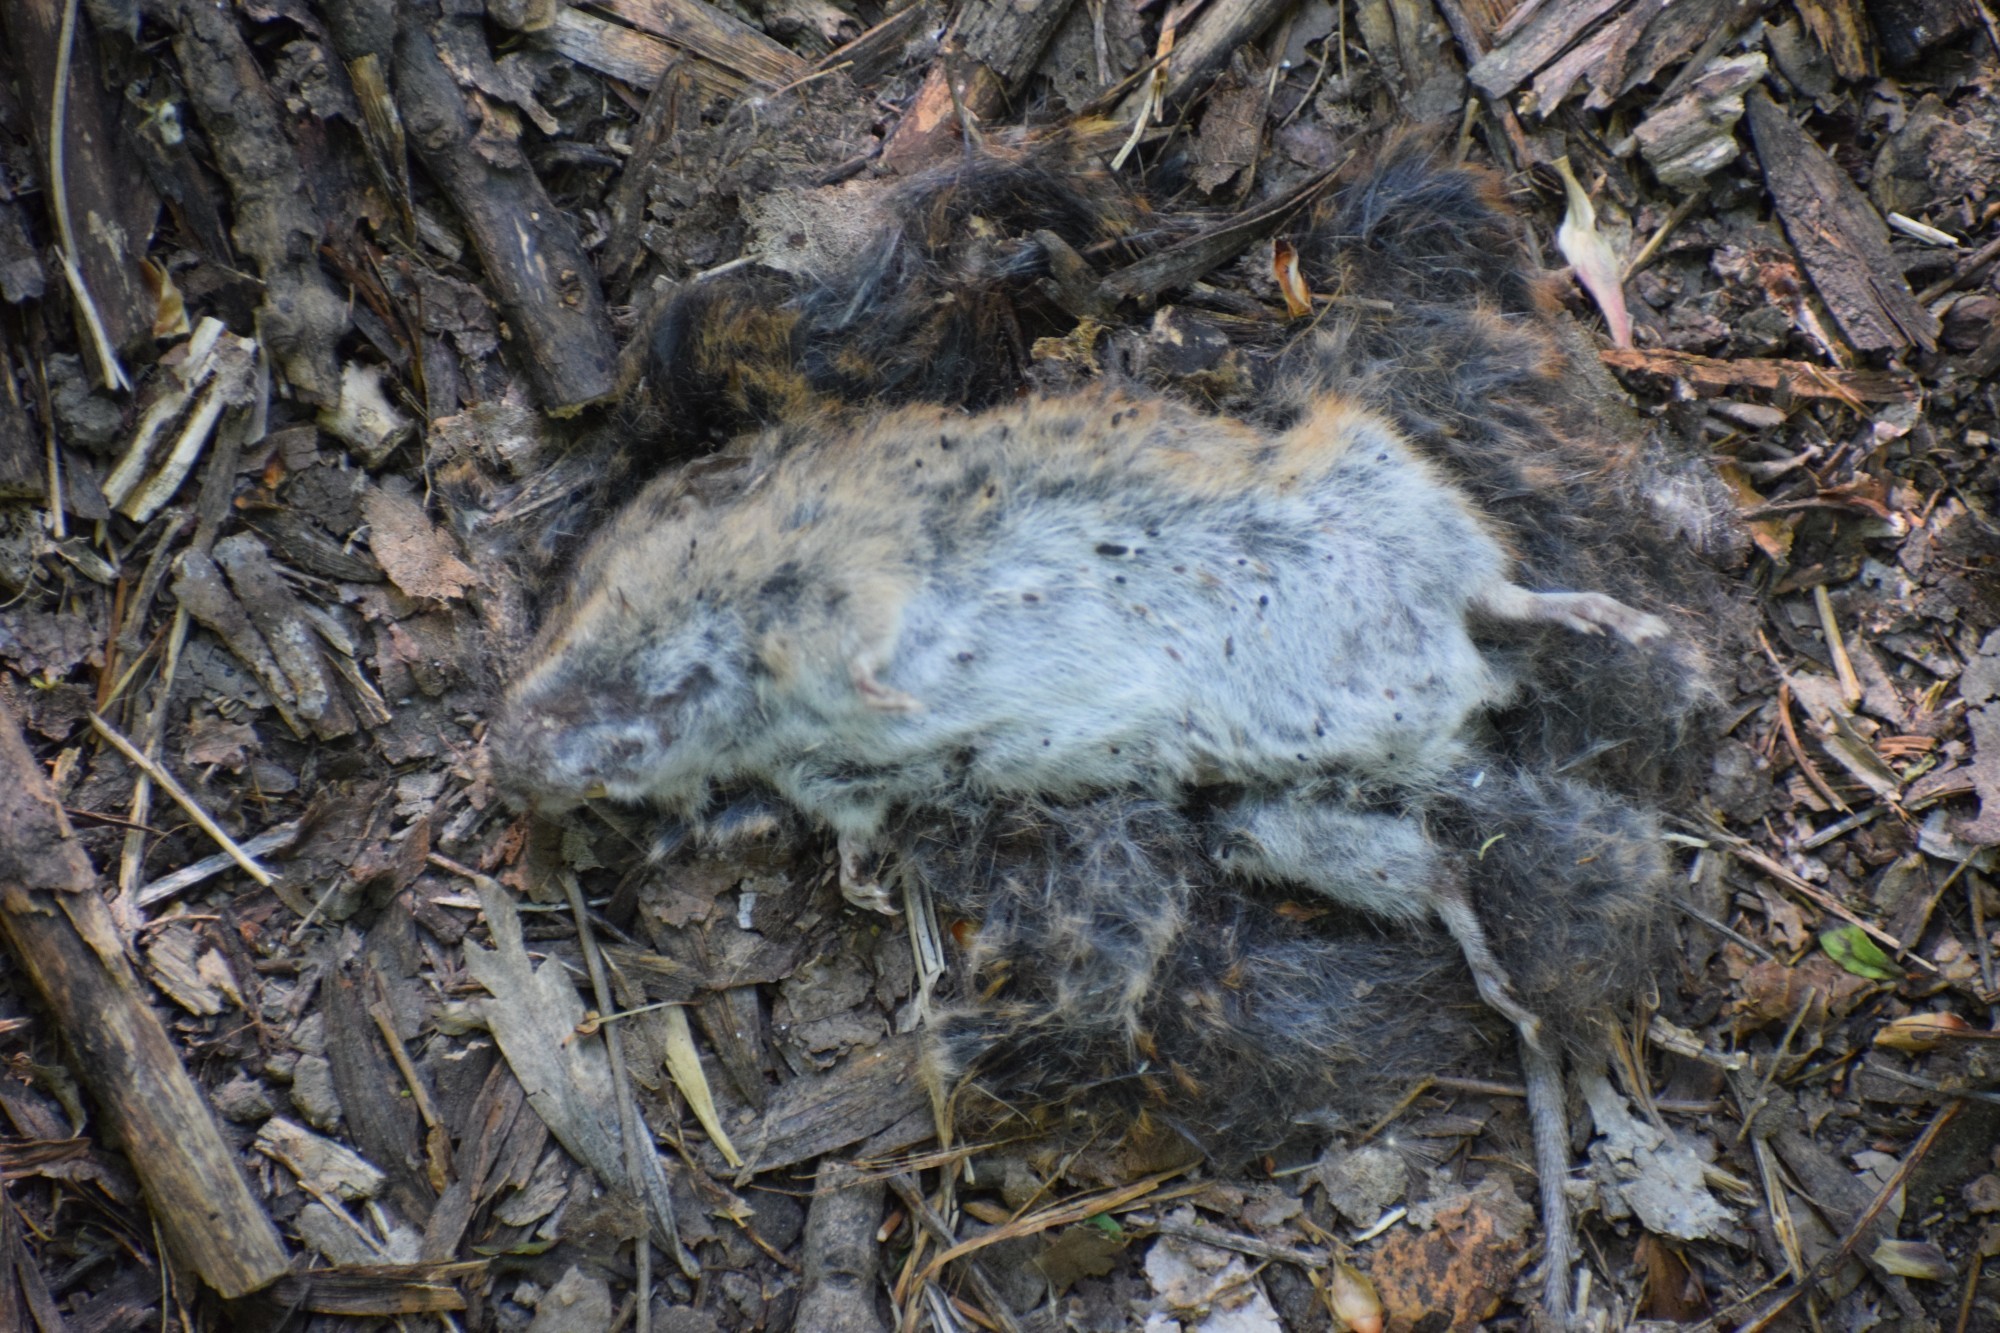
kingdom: Animalia
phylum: Chordata
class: Mammalia
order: Rodentia
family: Muridae
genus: Apodemus
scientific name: Apodemus
